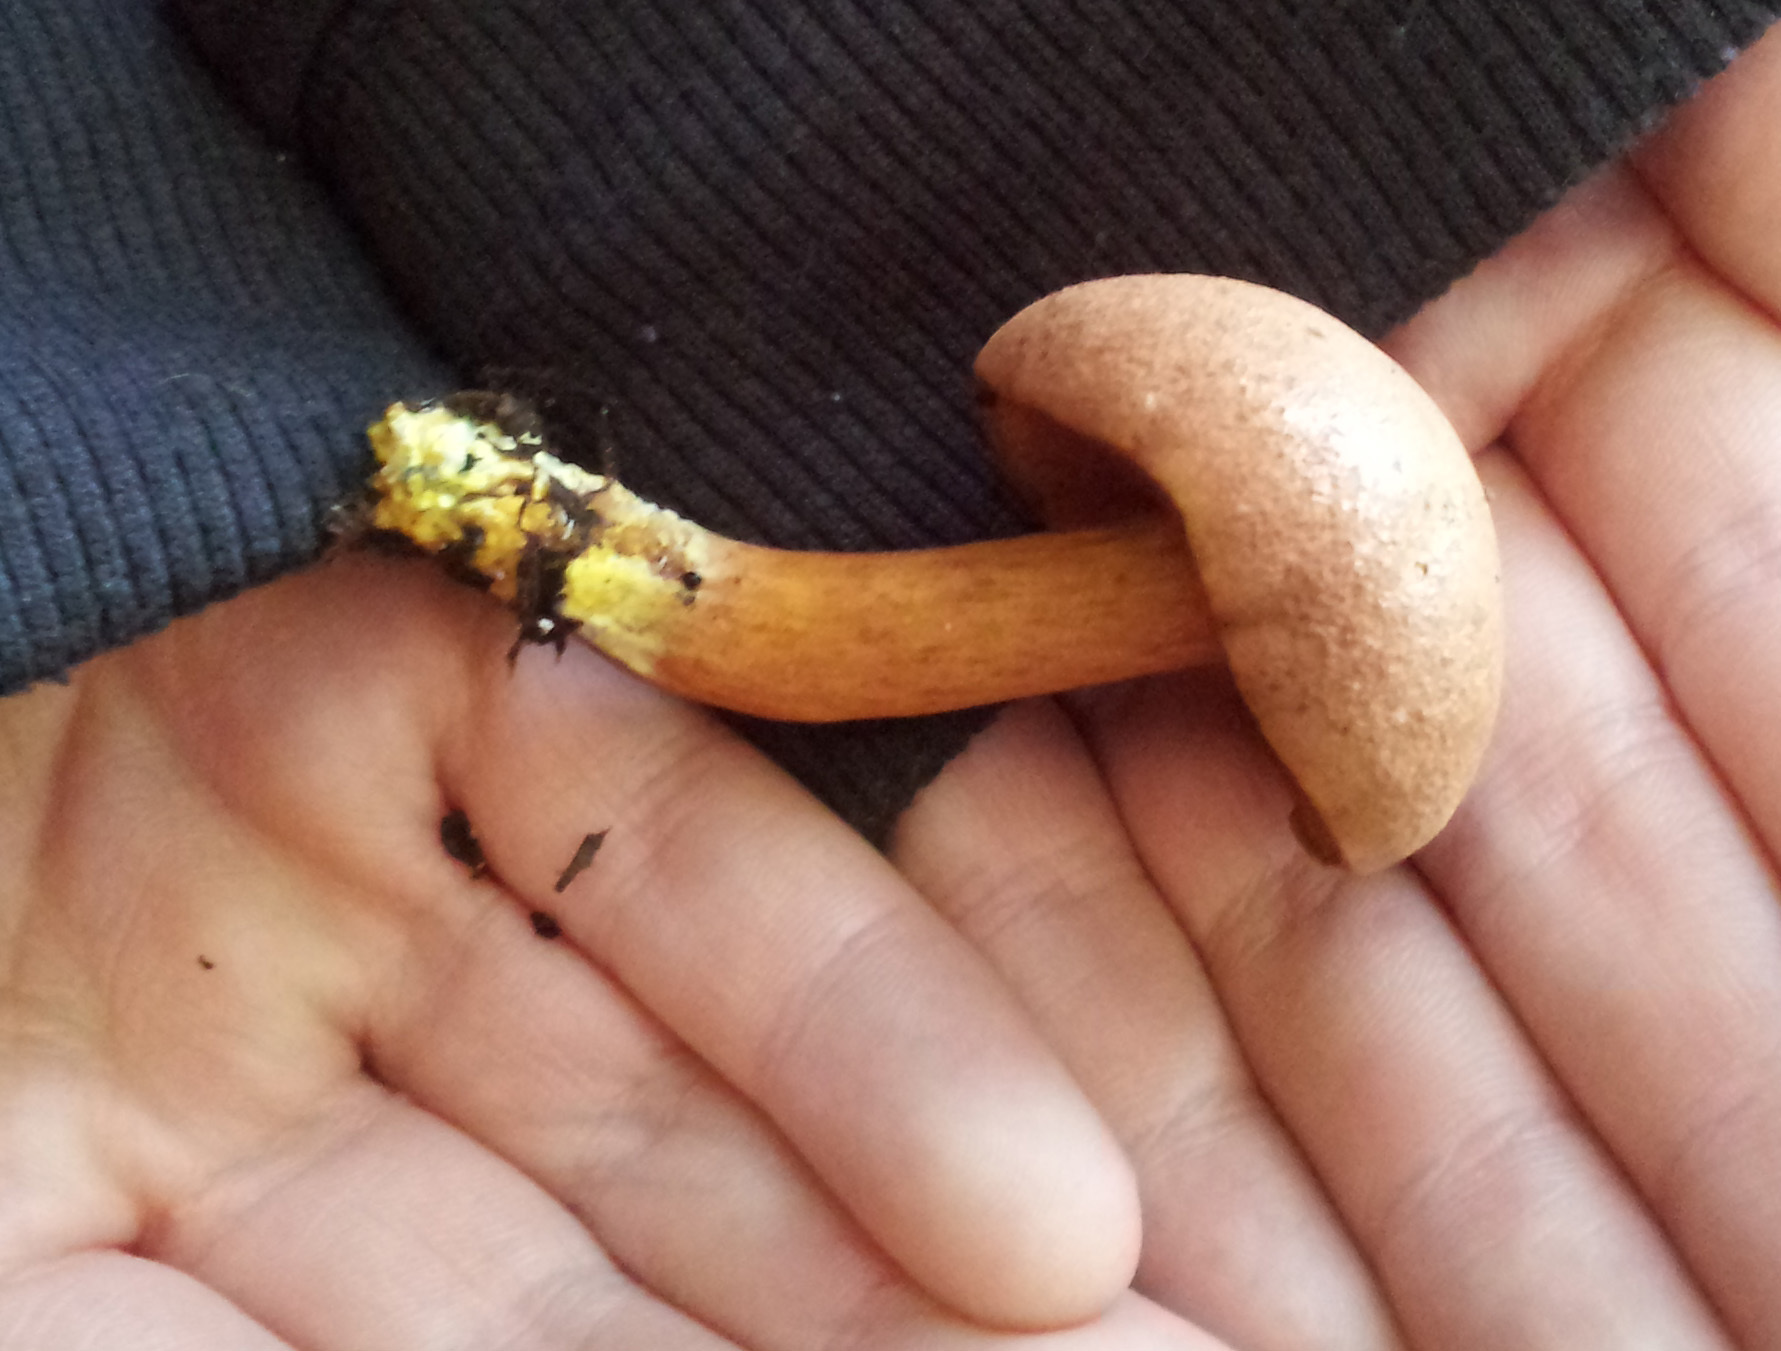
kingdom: Fungi
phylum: Basidiomycota
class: Agaricomycetes
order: Boletales
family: Boletaceae
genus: Chalciporus
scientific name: Chalciporus piperatus
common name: Peppery bolete
